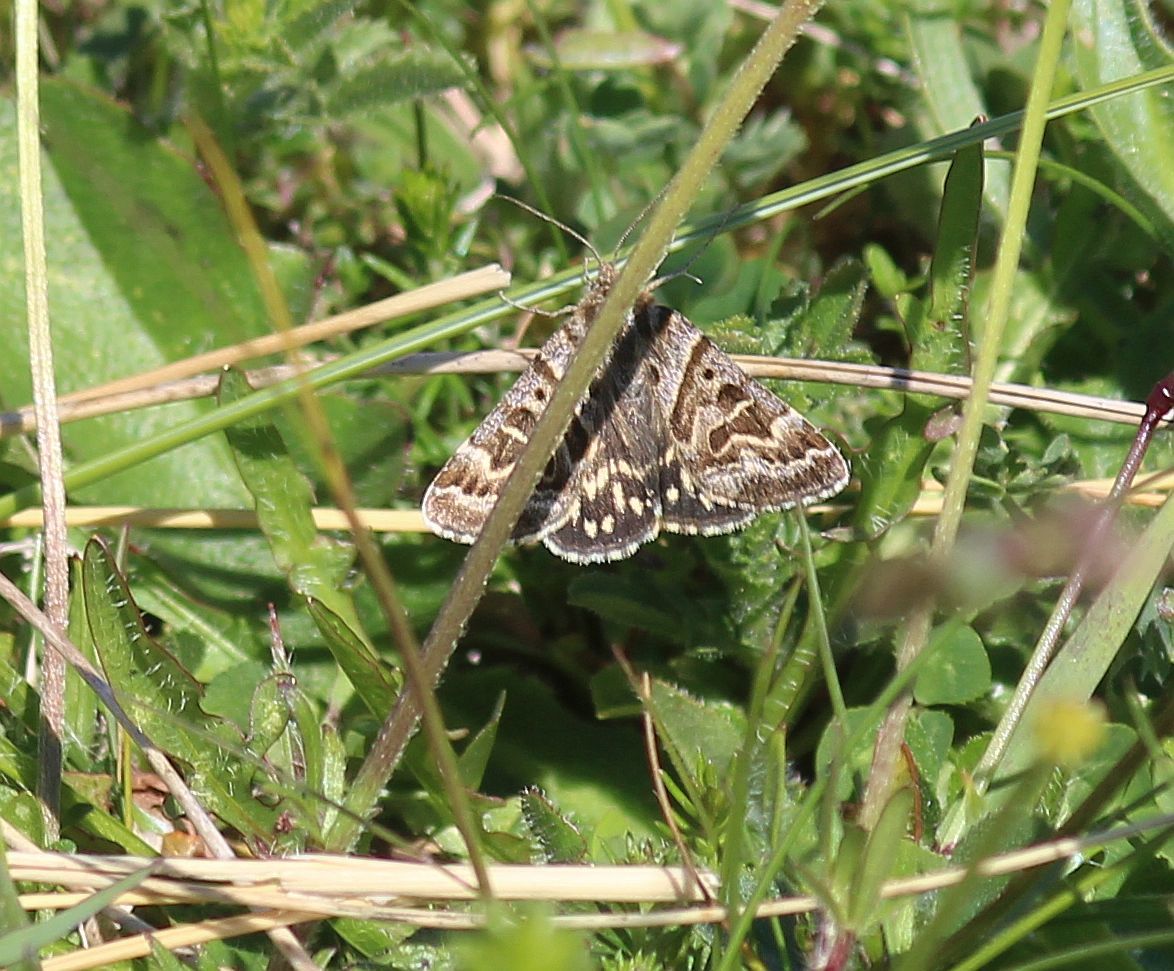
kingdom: Animalia
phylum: Arthropoda
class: Insecta
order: Lepidoptera
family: Erebidae
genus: Callistege
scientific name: Callistege mi
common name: Mother shipton
